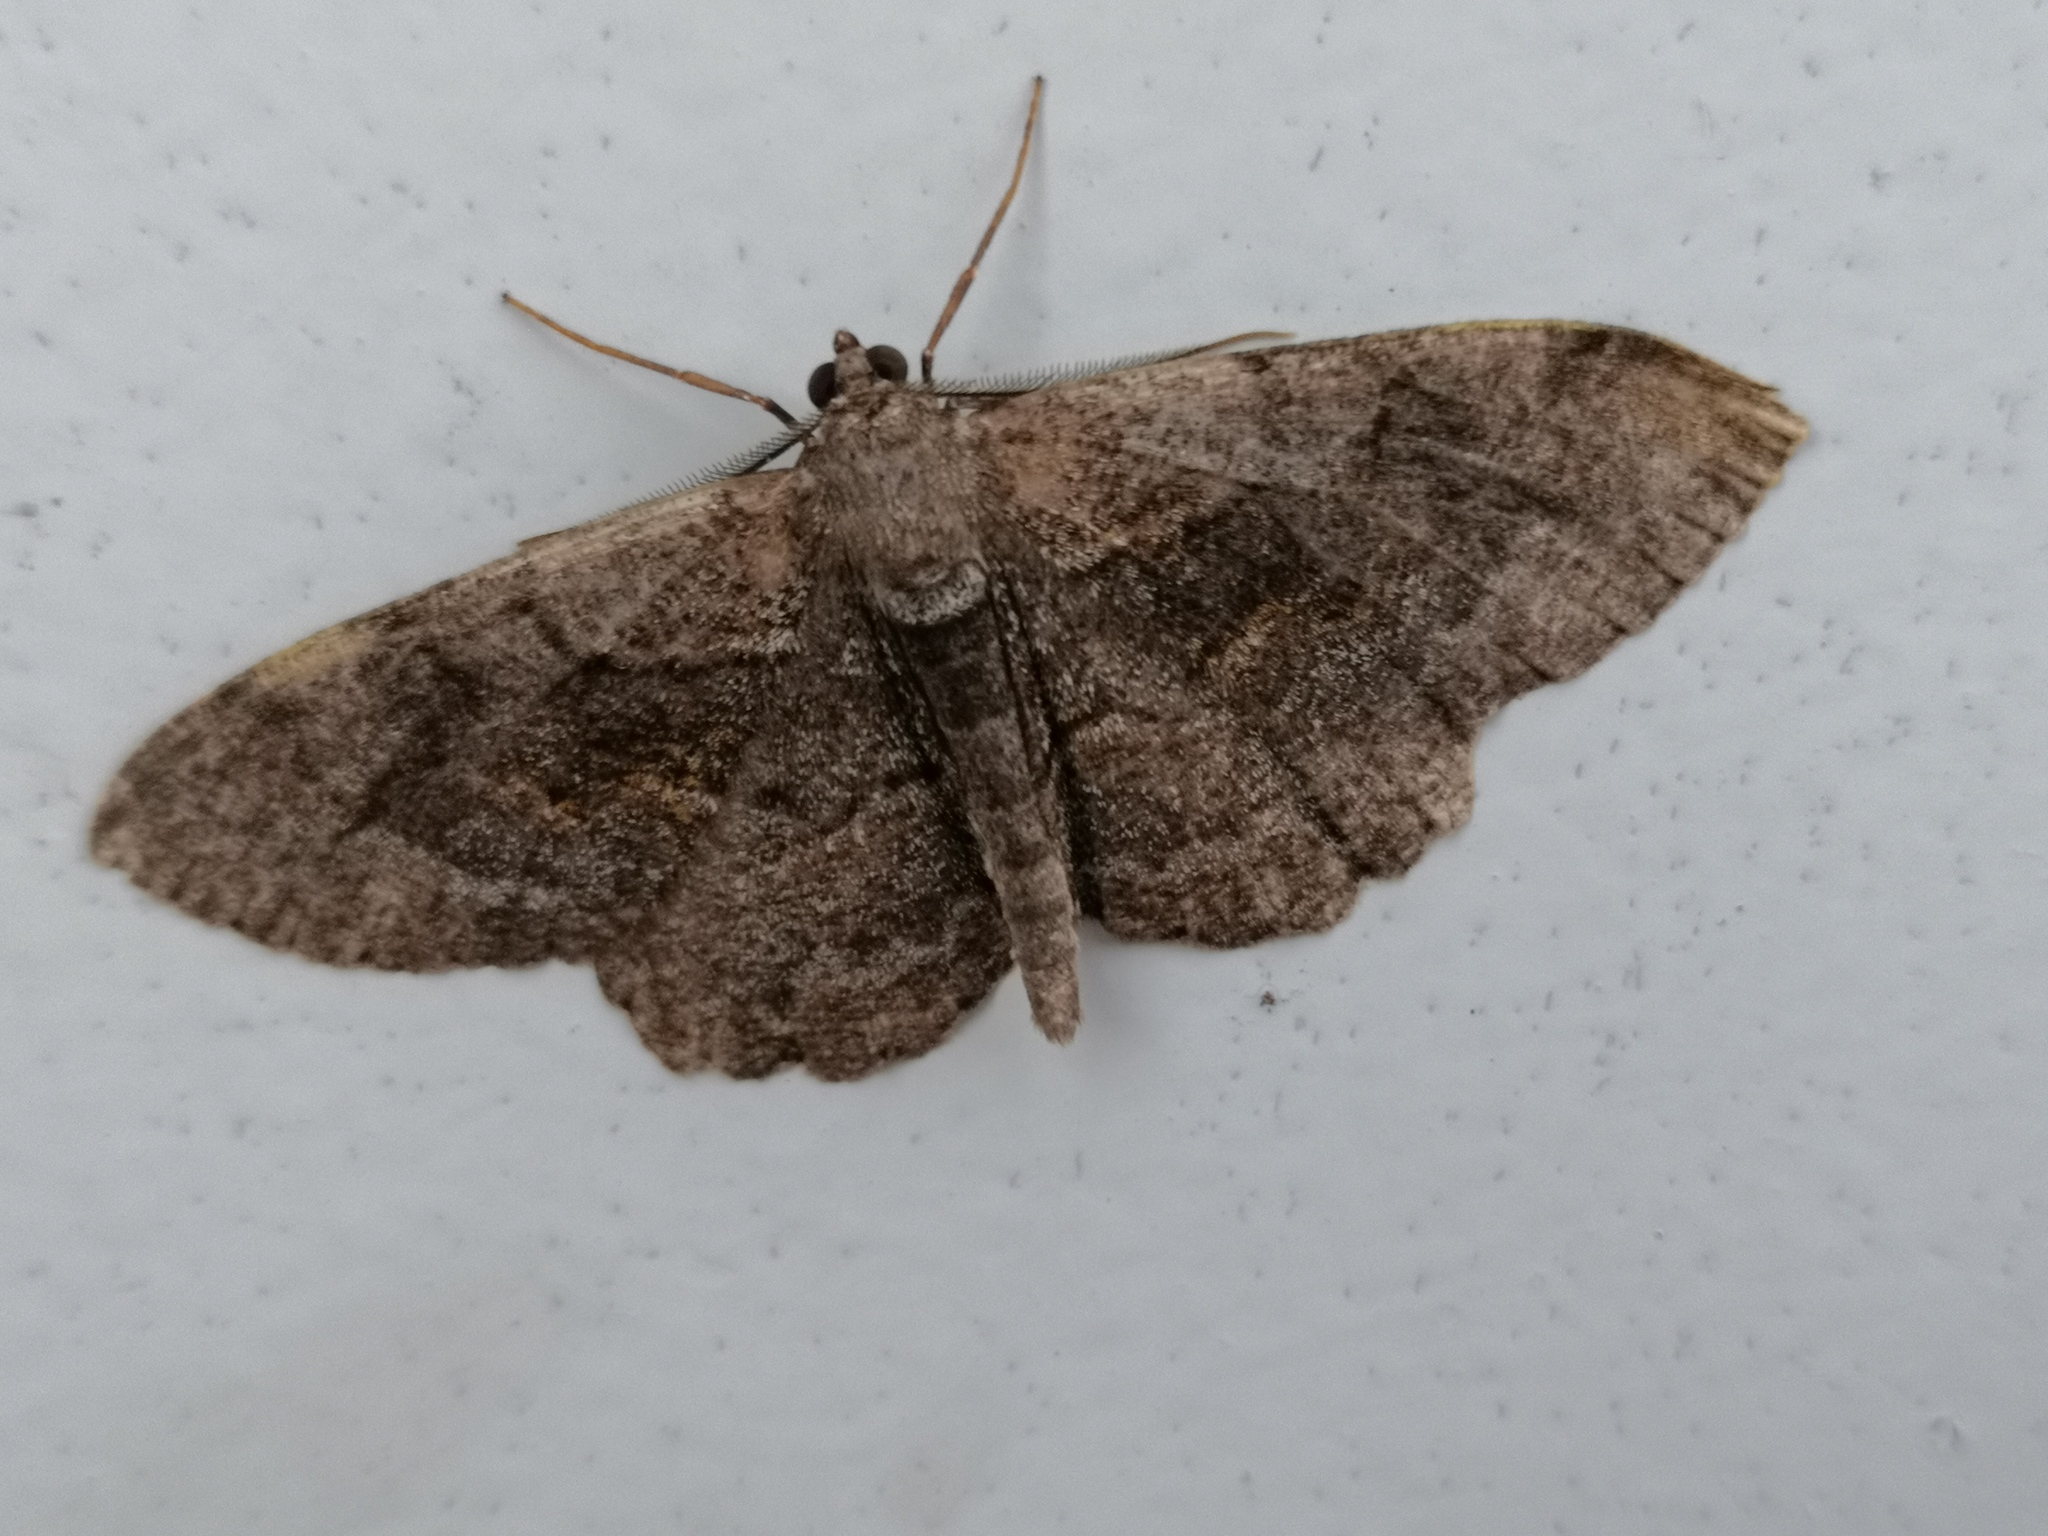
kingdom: Animalia
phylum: Arthropoda
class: Insecta
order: Lepidoptera
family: Geometridae
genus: Alcis
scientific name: Alcis repandata
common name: Mottled beauty
